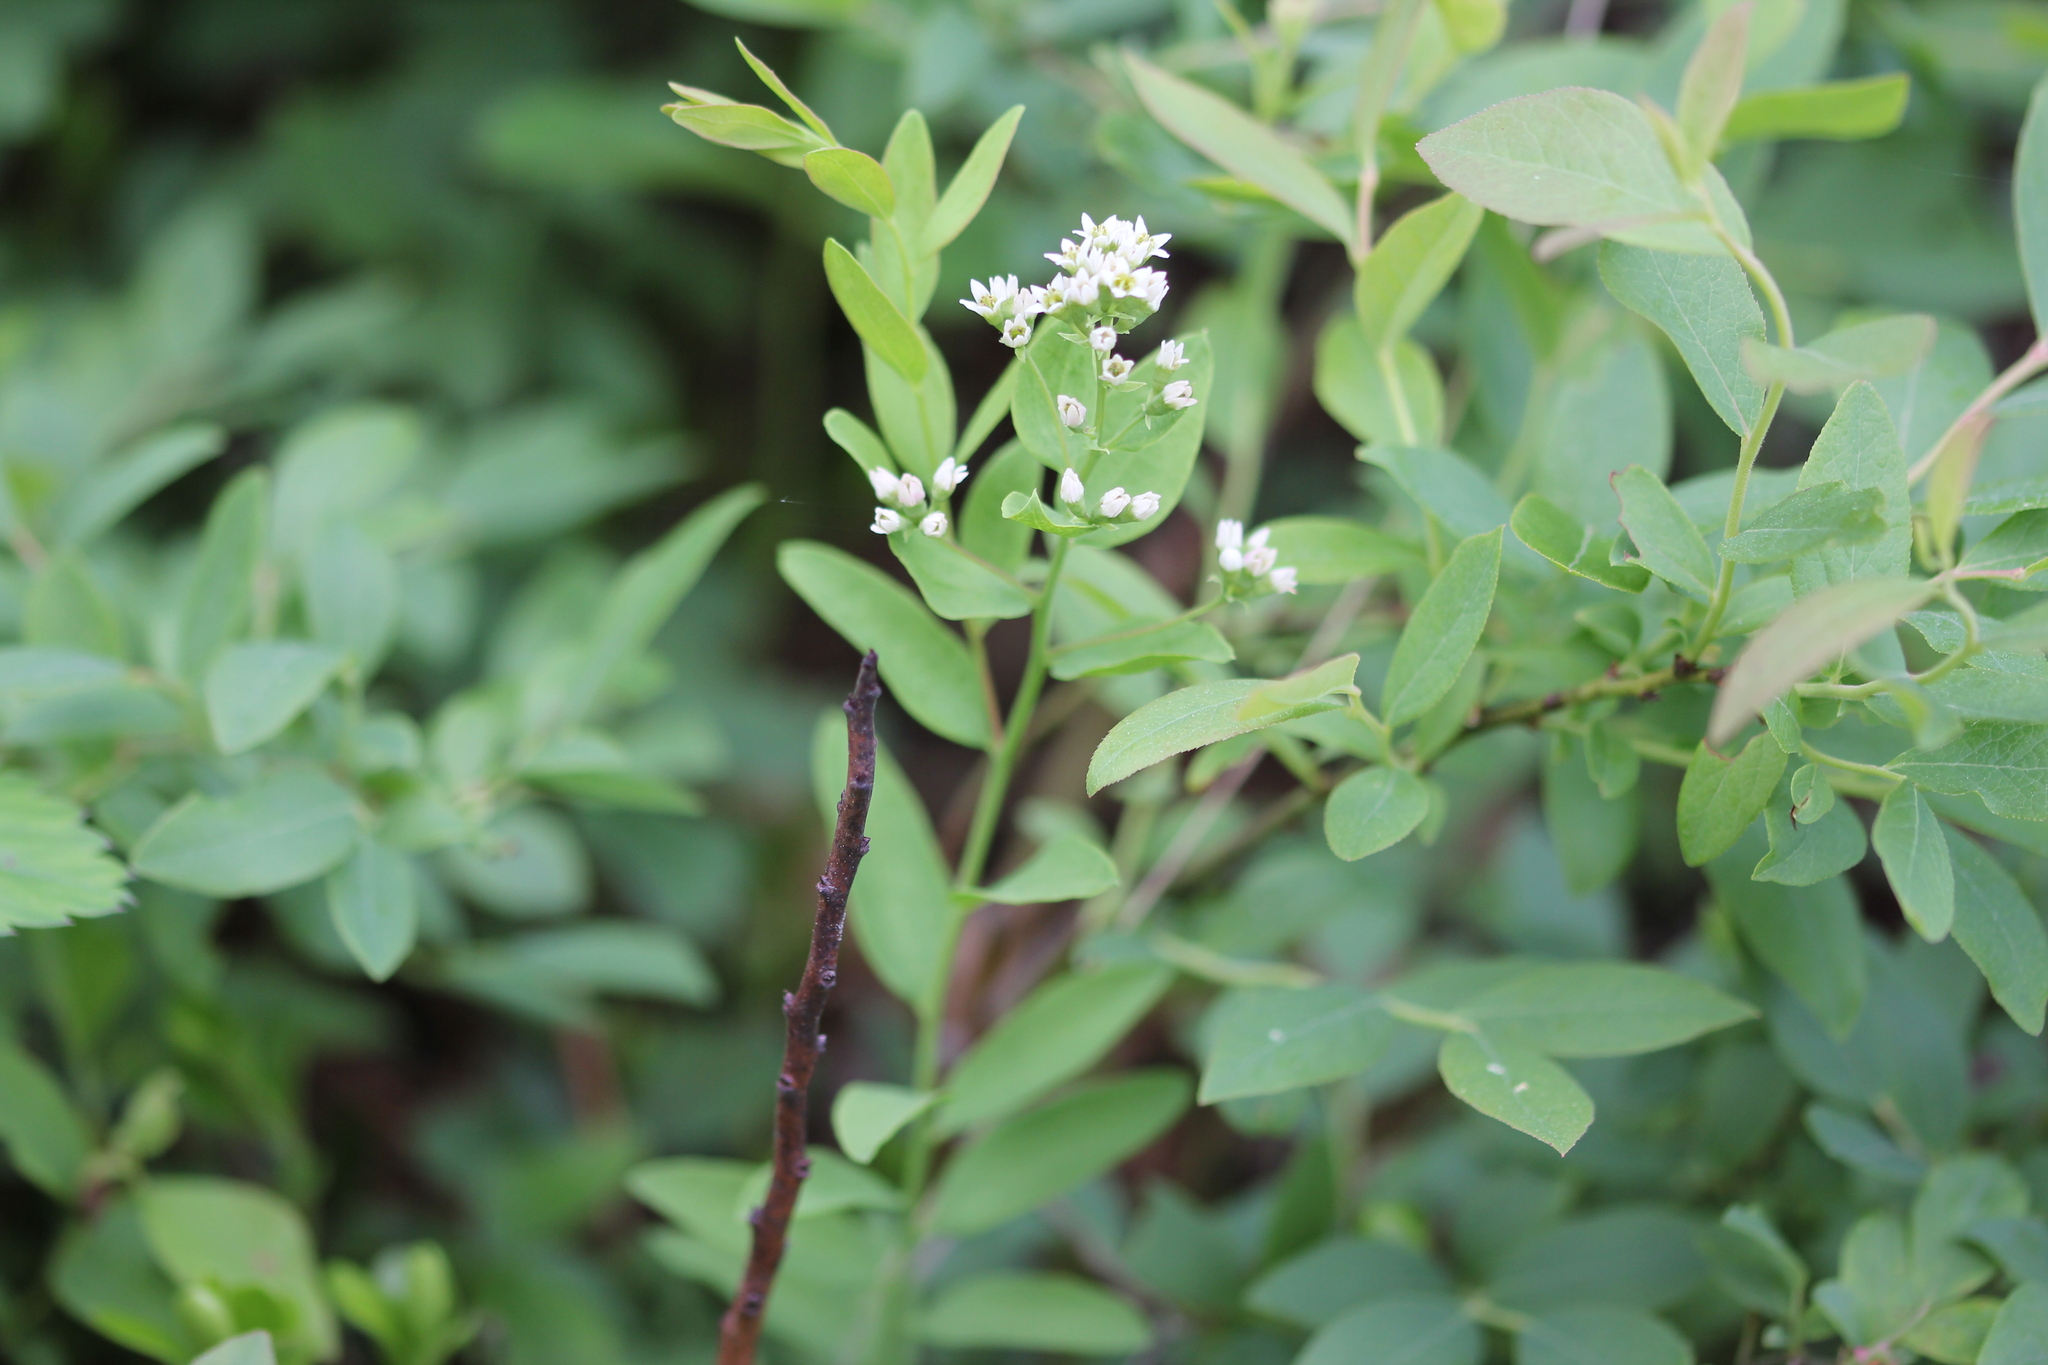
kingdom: Plantae
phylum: Tracheophyta
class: Magnoliopsida
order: Santalales
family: Comandraceae
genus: Comandra
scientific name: Comandra umbellata
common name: Bastard toadflax
